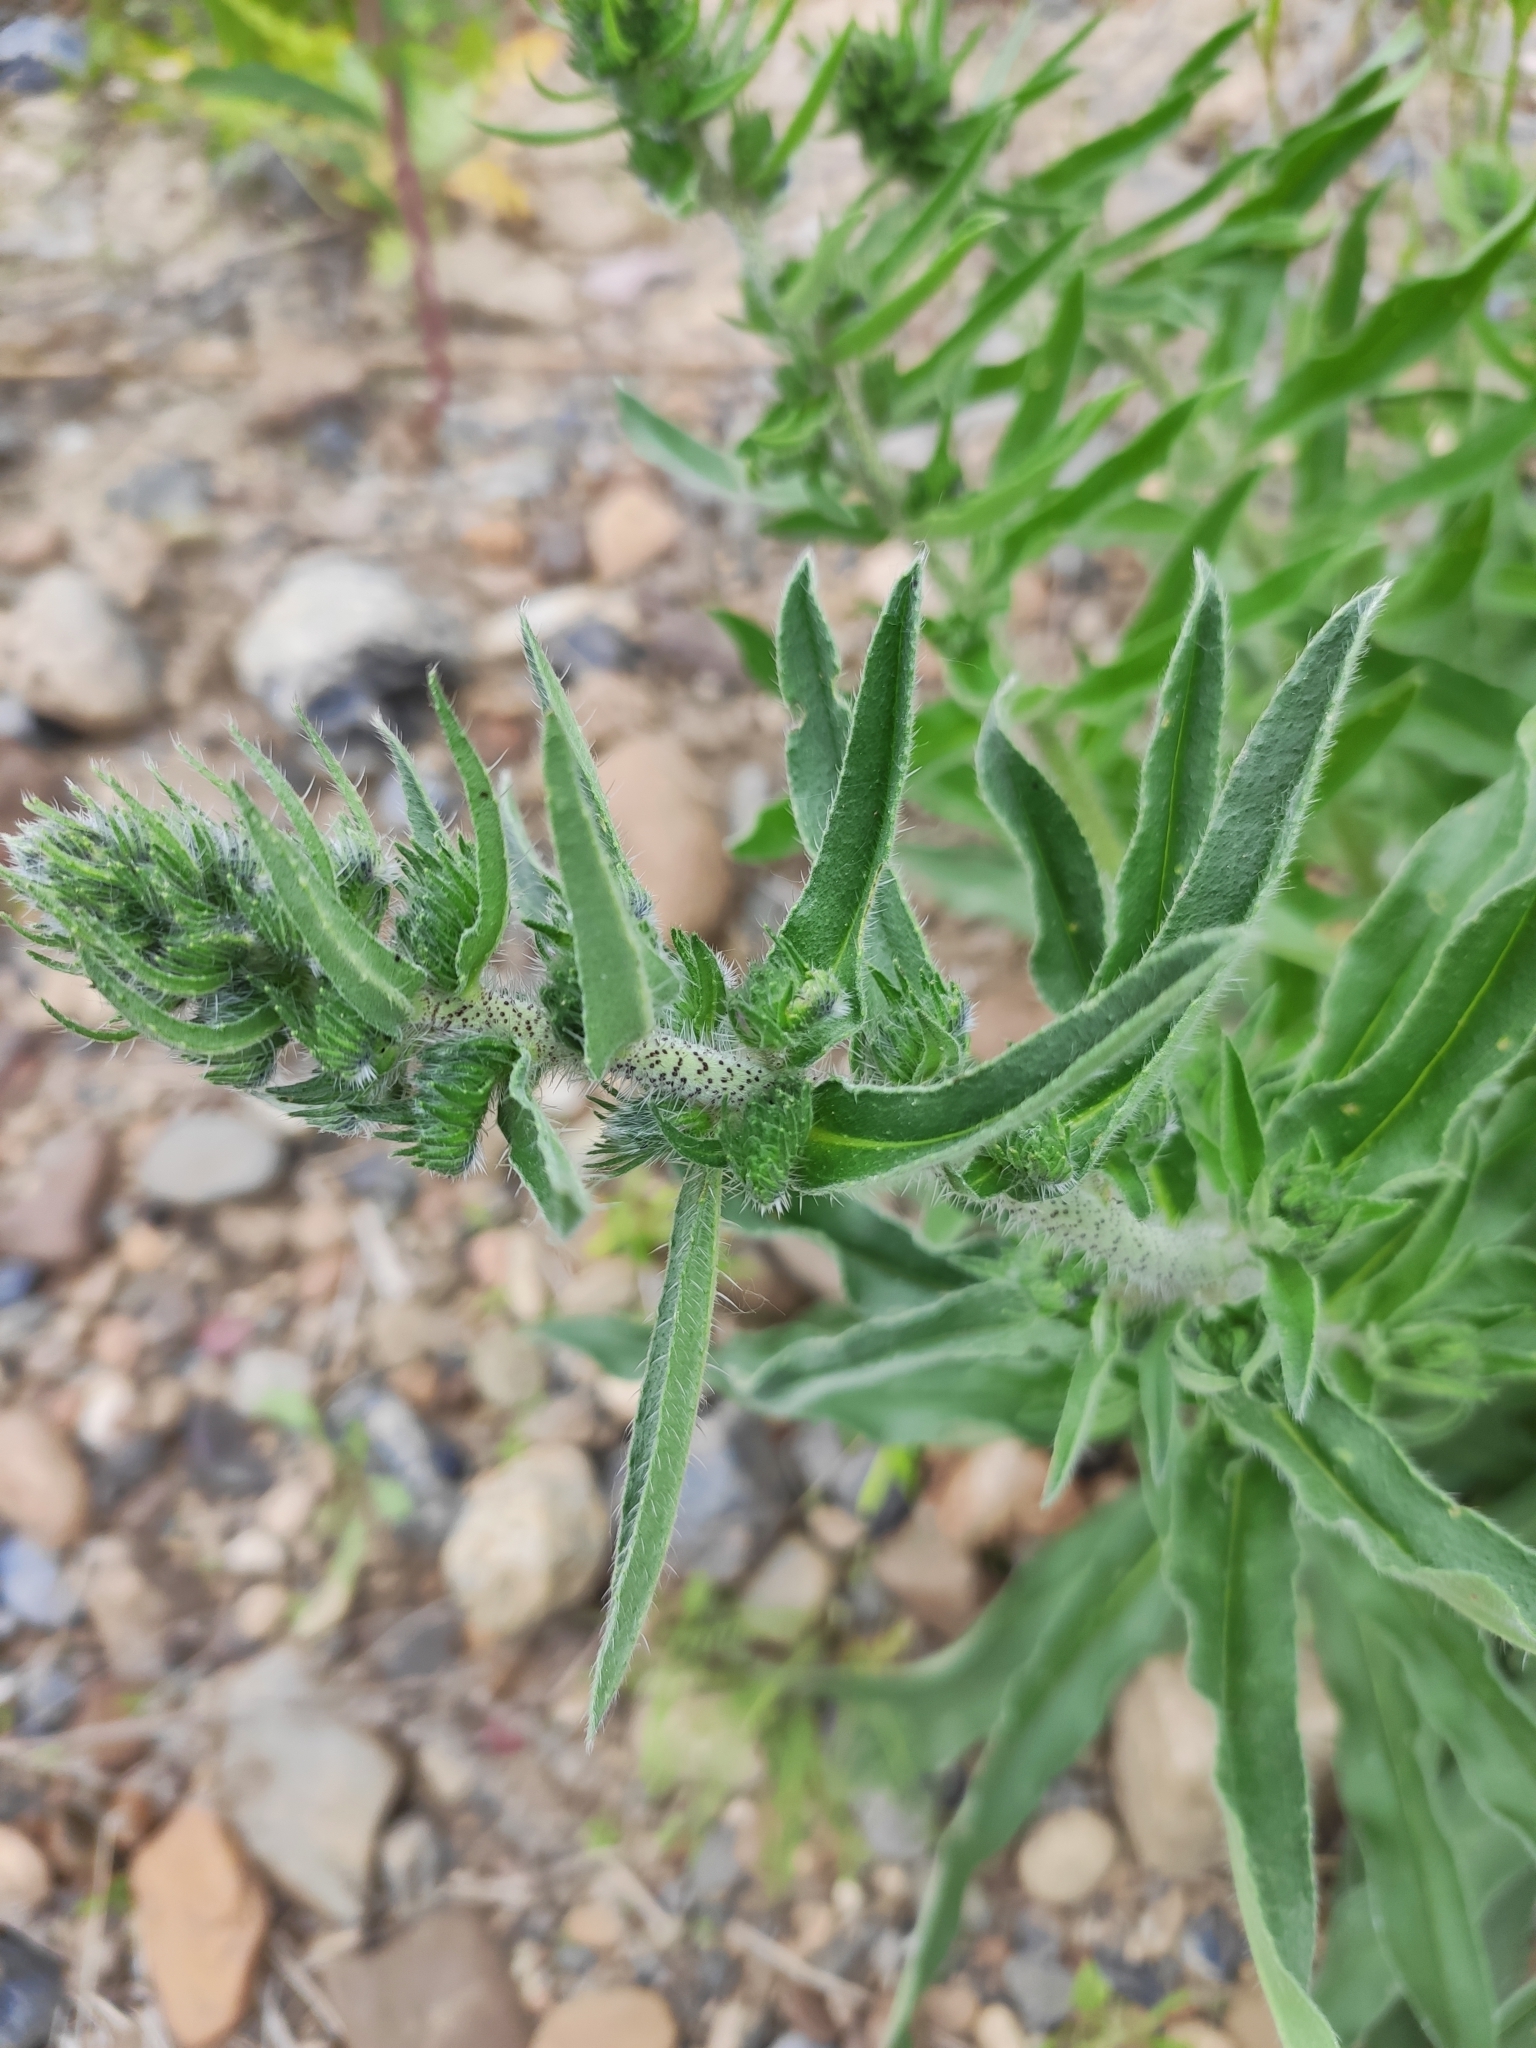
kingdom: Plantae
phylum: Tracheophyta
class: Magnoliopsida
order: Boraginales
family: Boraginaceae
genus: Echium
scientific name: Echium vulgare
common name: Common viper's bugloss
